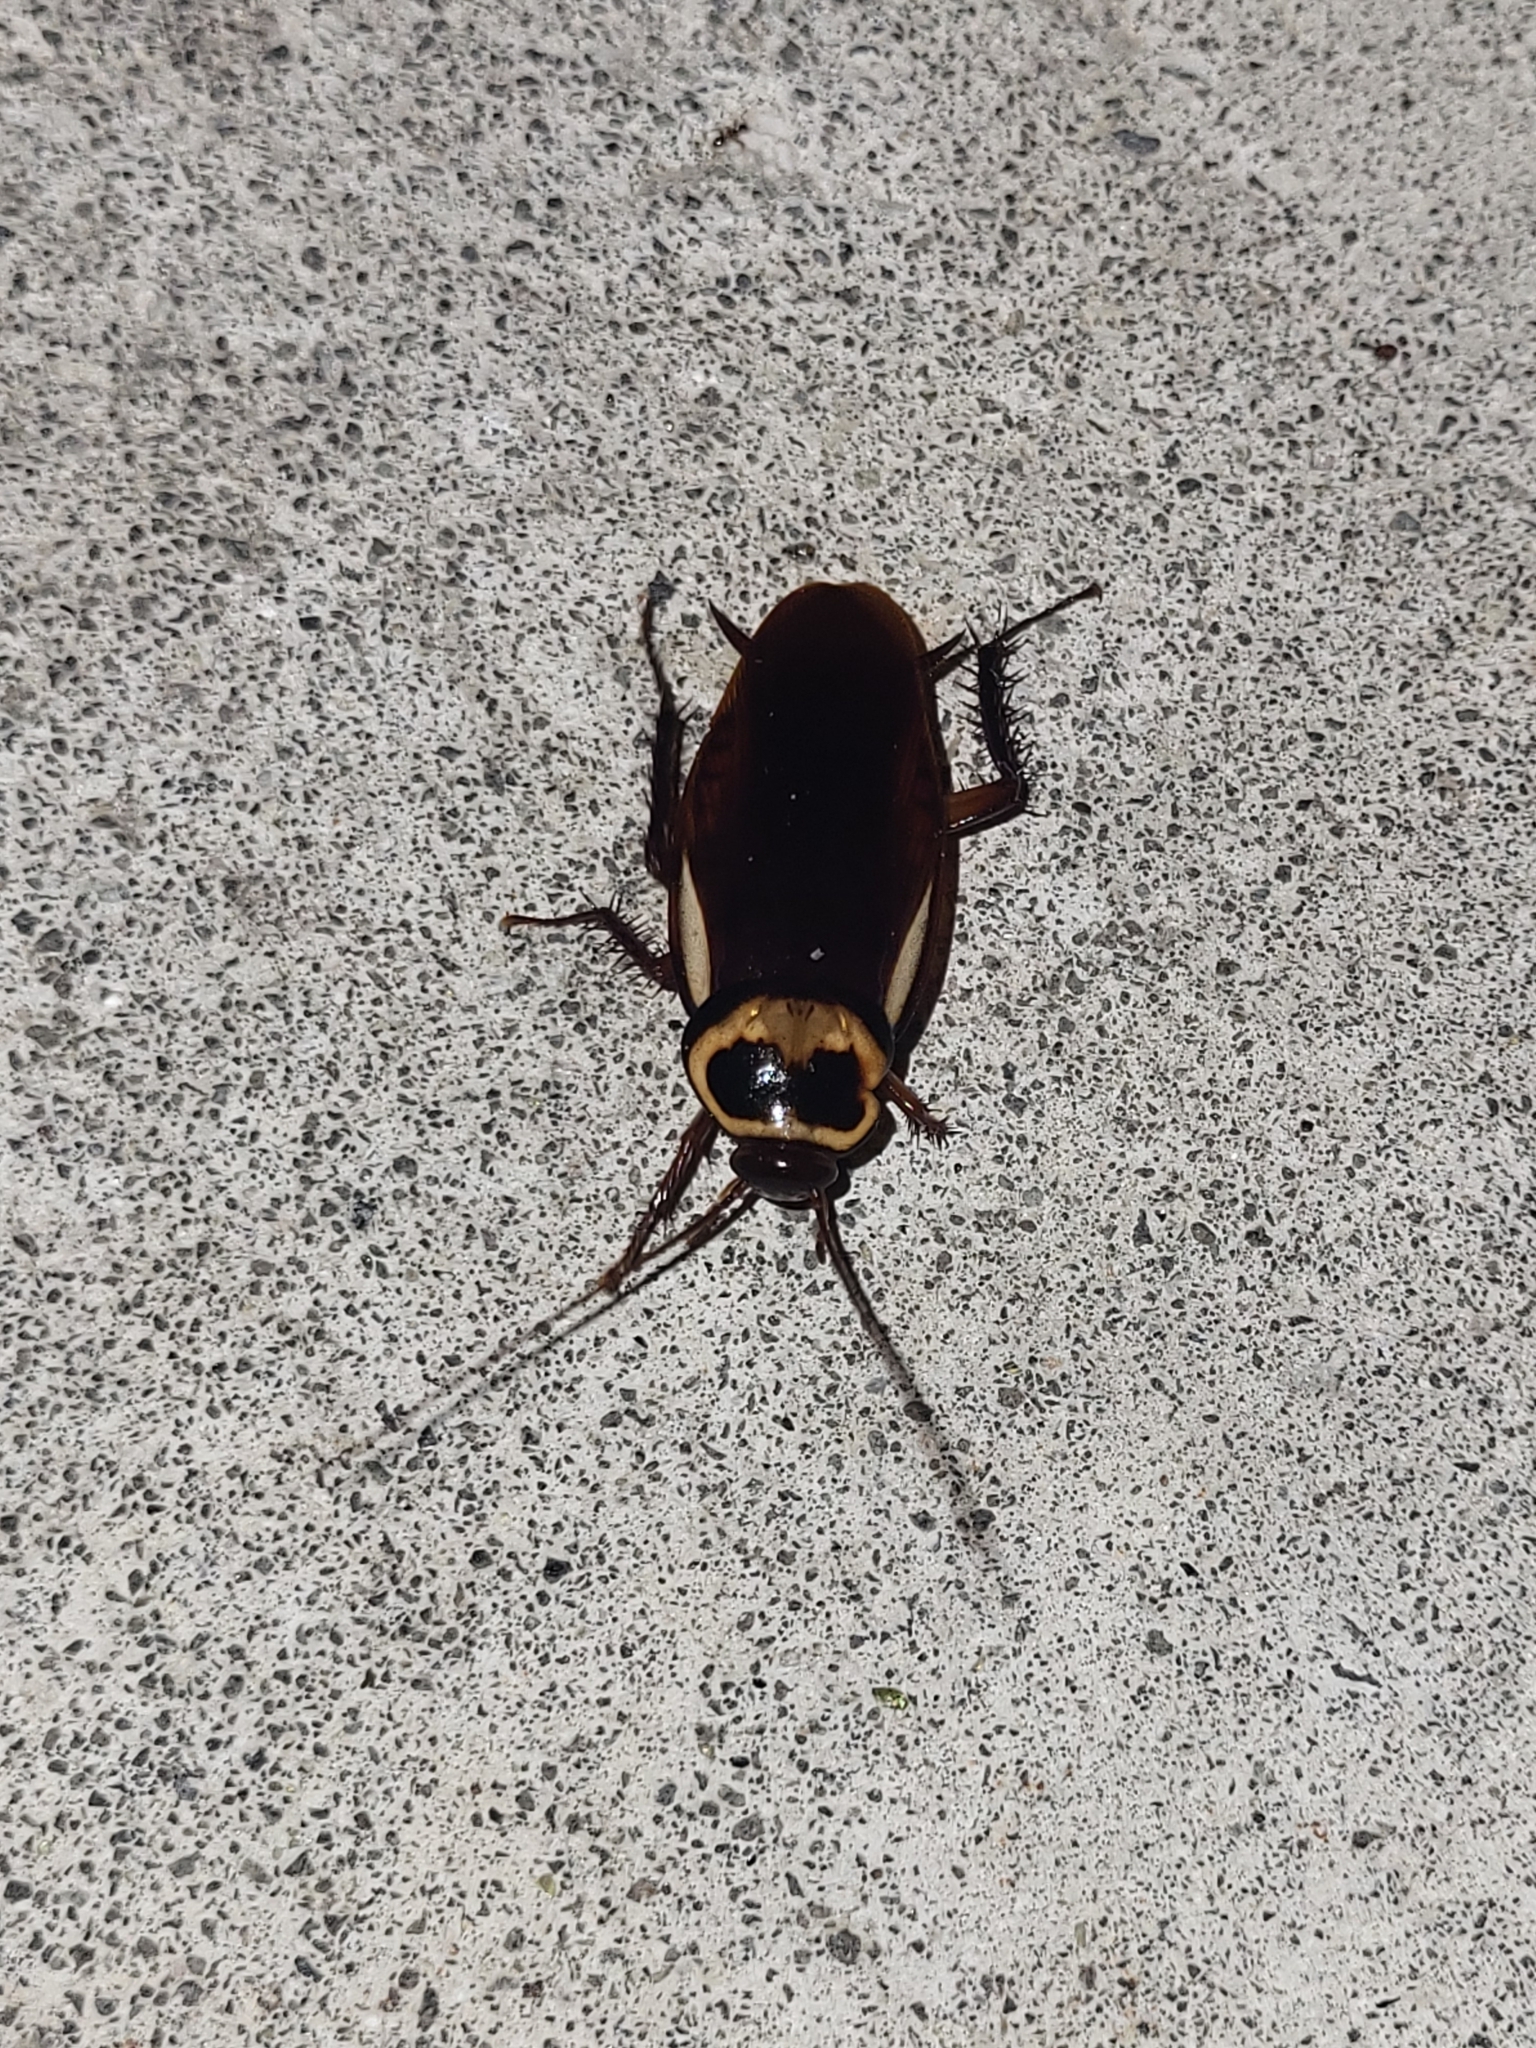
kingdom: Animalia
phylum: Arthropoda
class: Insecta
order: Blattodea
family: Blattidae
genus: Periplaneta
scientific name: Periplaneta australasiae
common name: Australian cockroach
